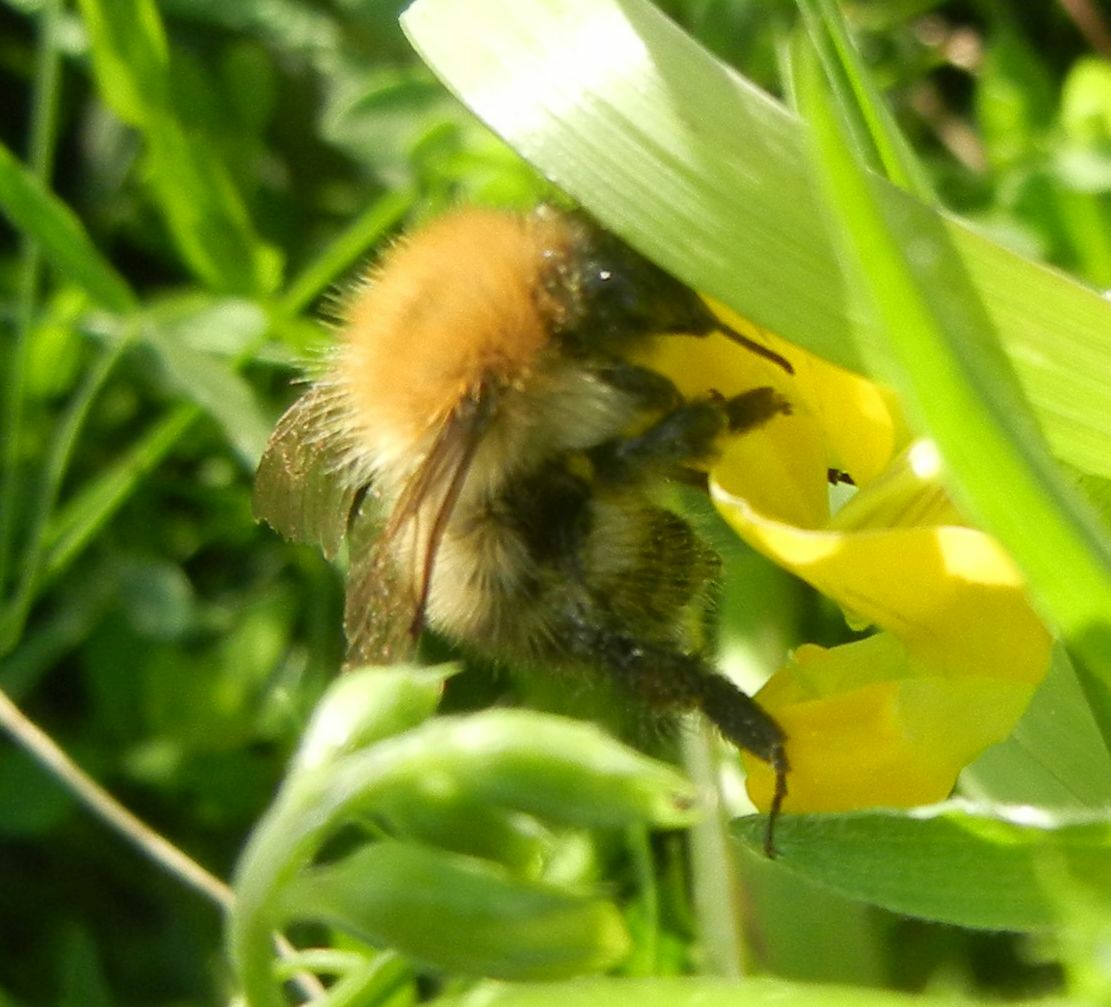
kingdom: Animalia
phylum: Arthropoda
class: Insecta
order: Hymenoptera
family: Apidae
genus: Bombus
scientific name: Bombus pascuorum
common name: Common carder bee
